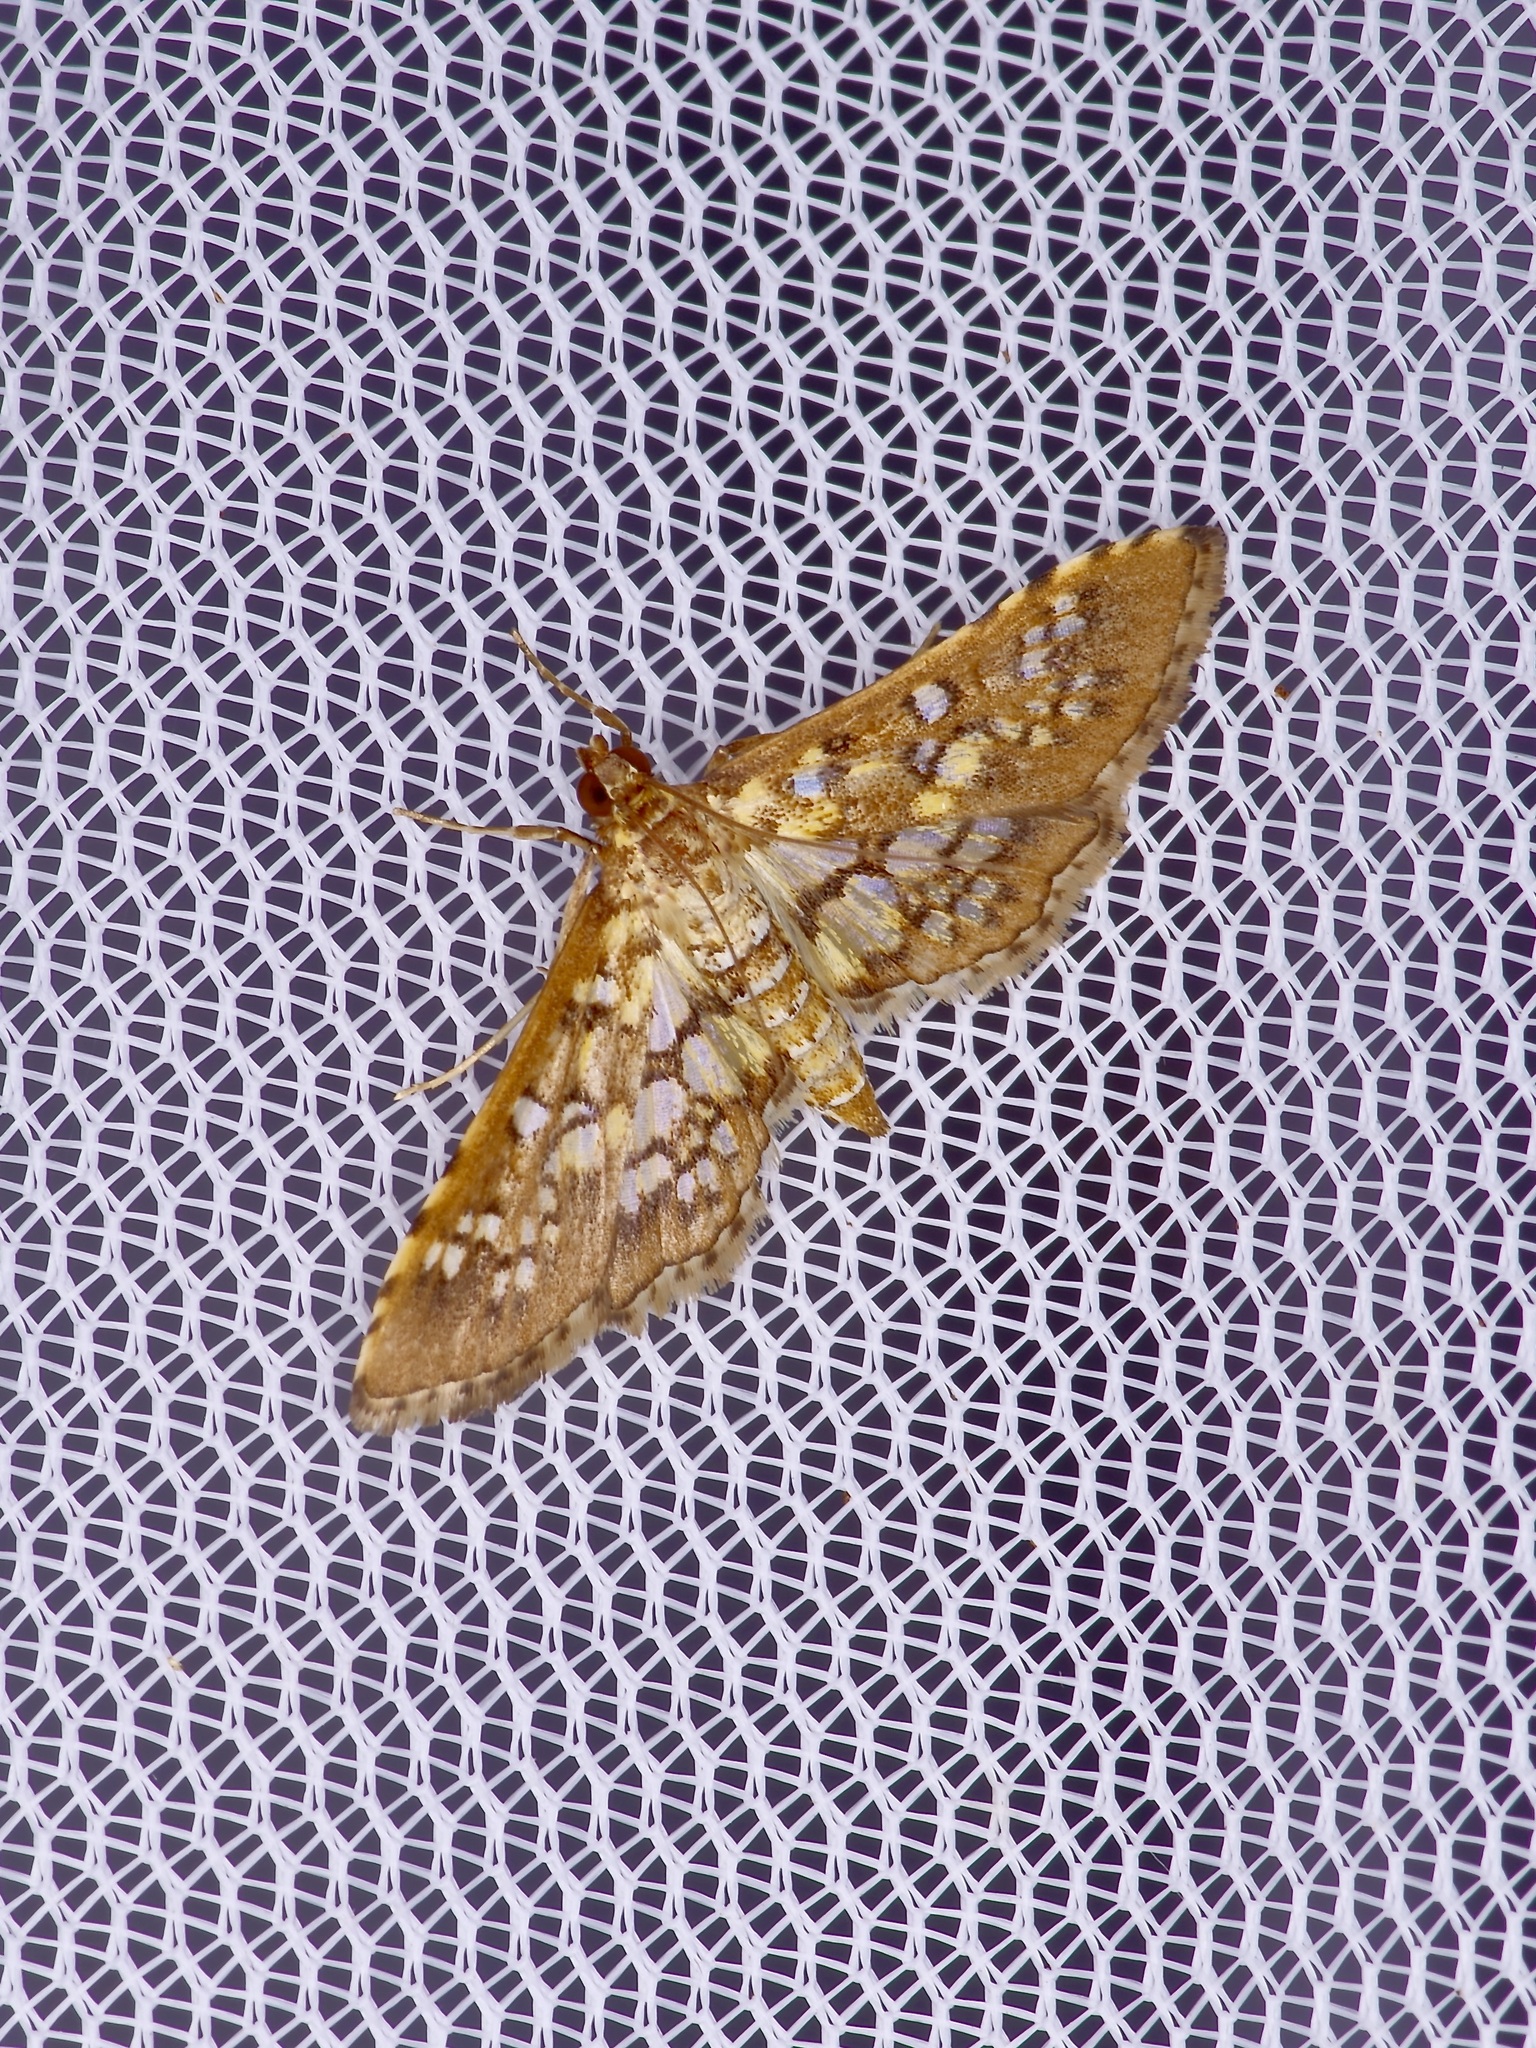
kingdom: Animalia
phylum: Arthropoda
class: Insecta
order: Lepidoptera
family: Crambidae
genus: Samea
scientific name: Samea ecclesialis
